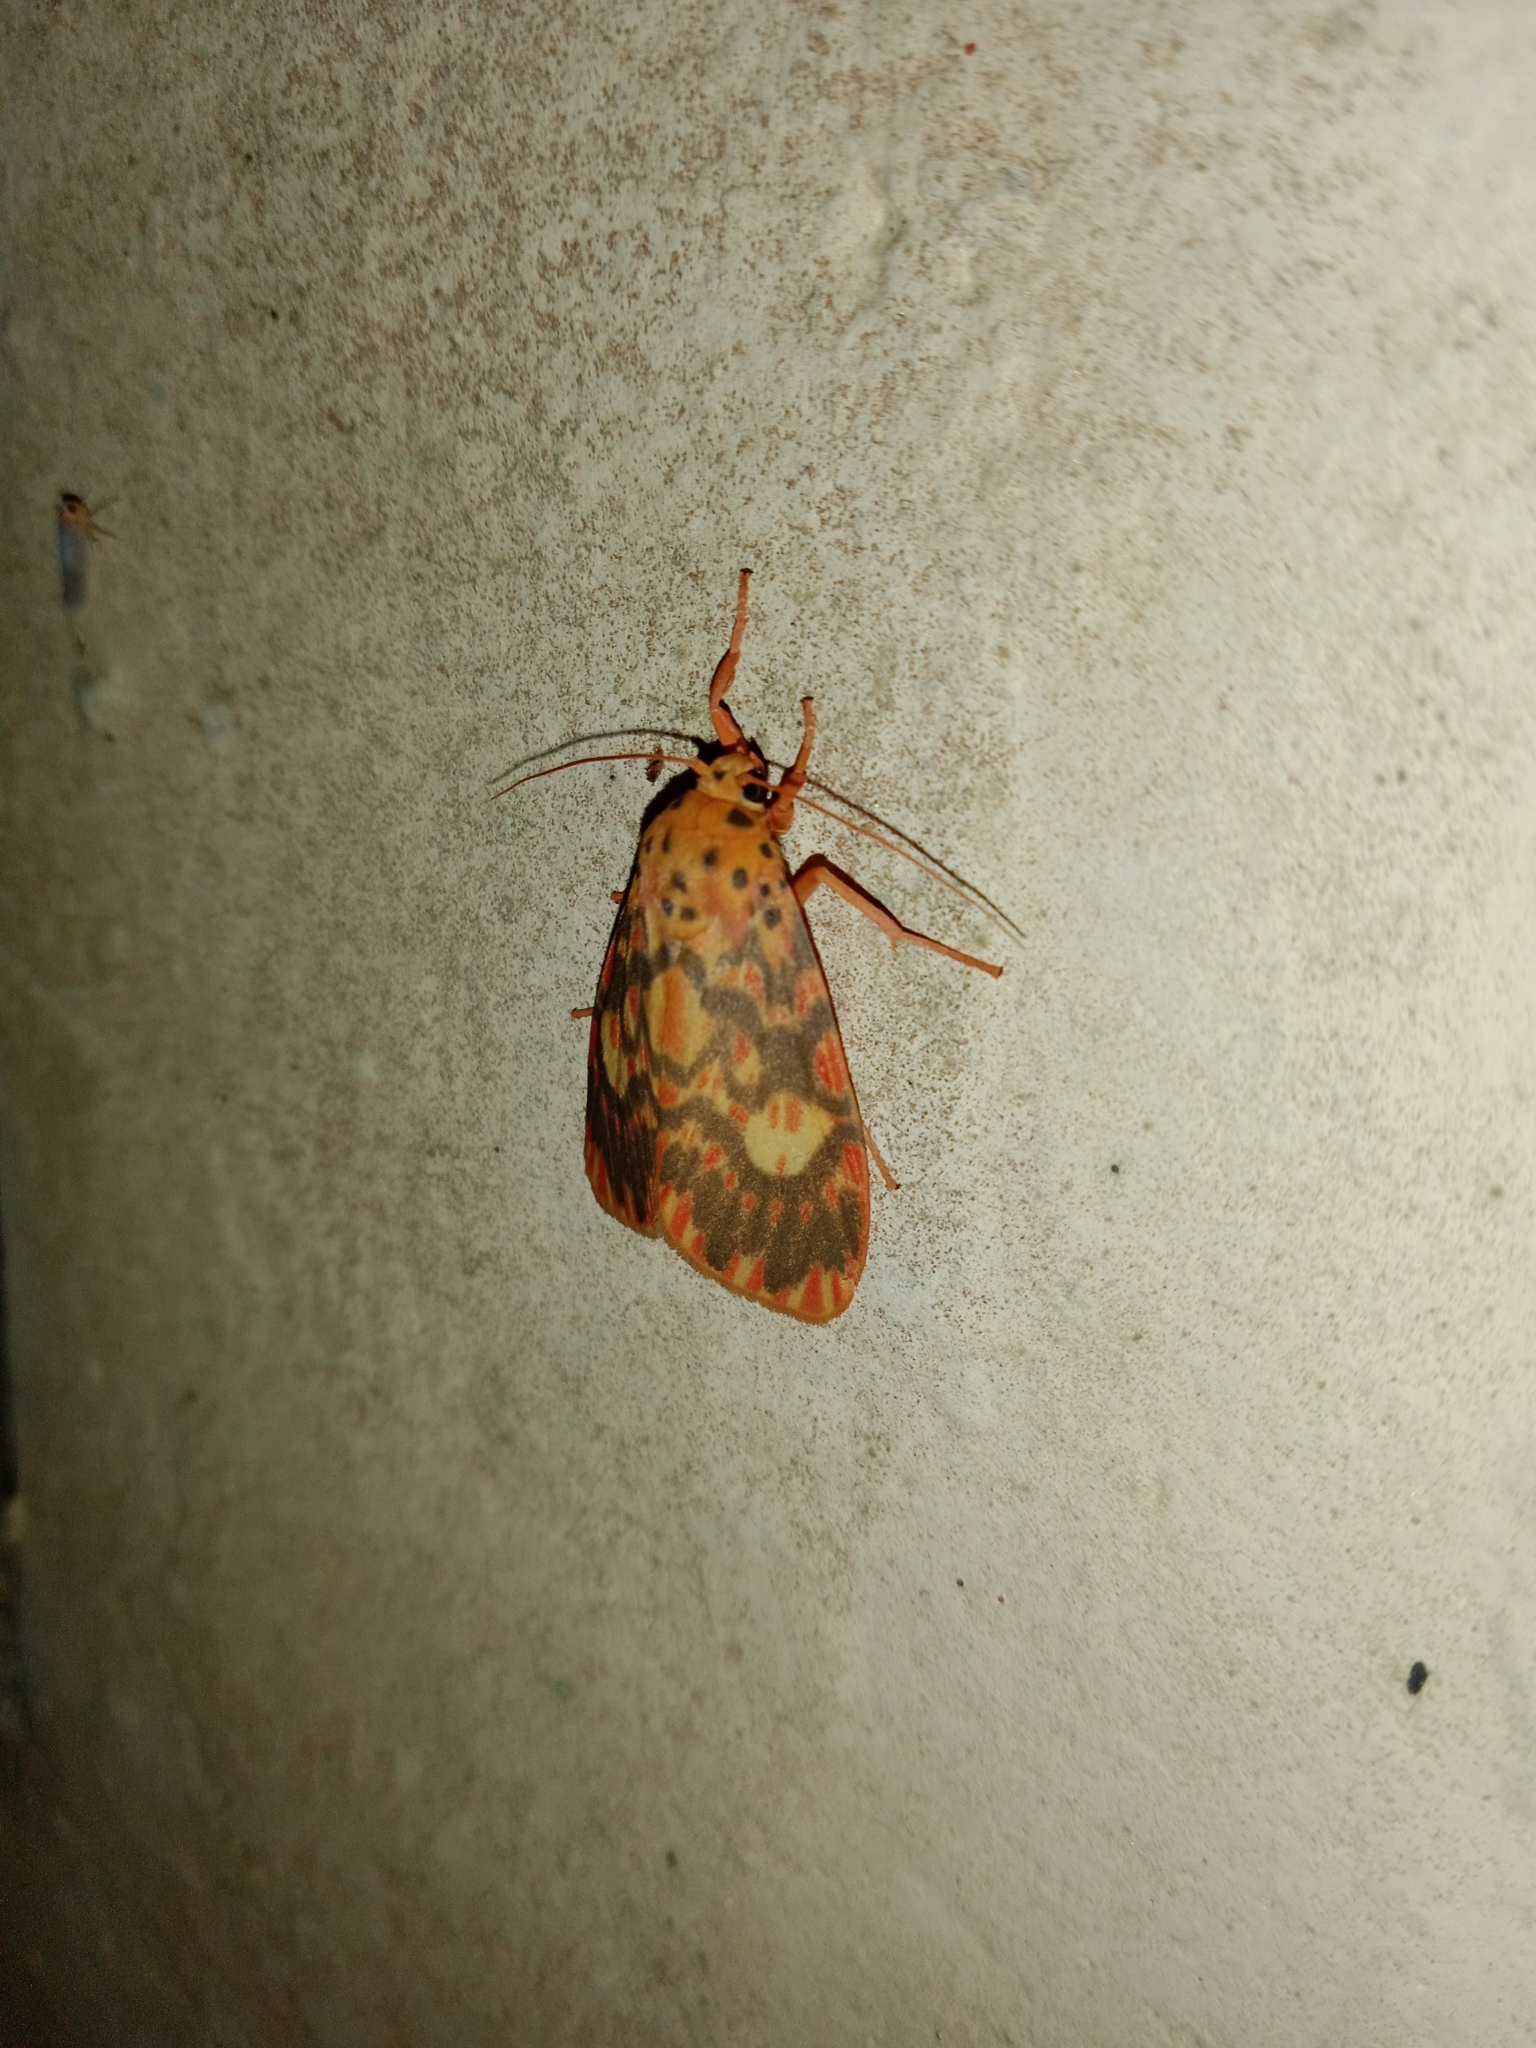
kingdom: Animalia
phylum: Arthropoda
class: Insecta
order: Lepidoptera
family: Erebidae
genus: Ammatho
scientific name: Ammatho cuneonotatus
